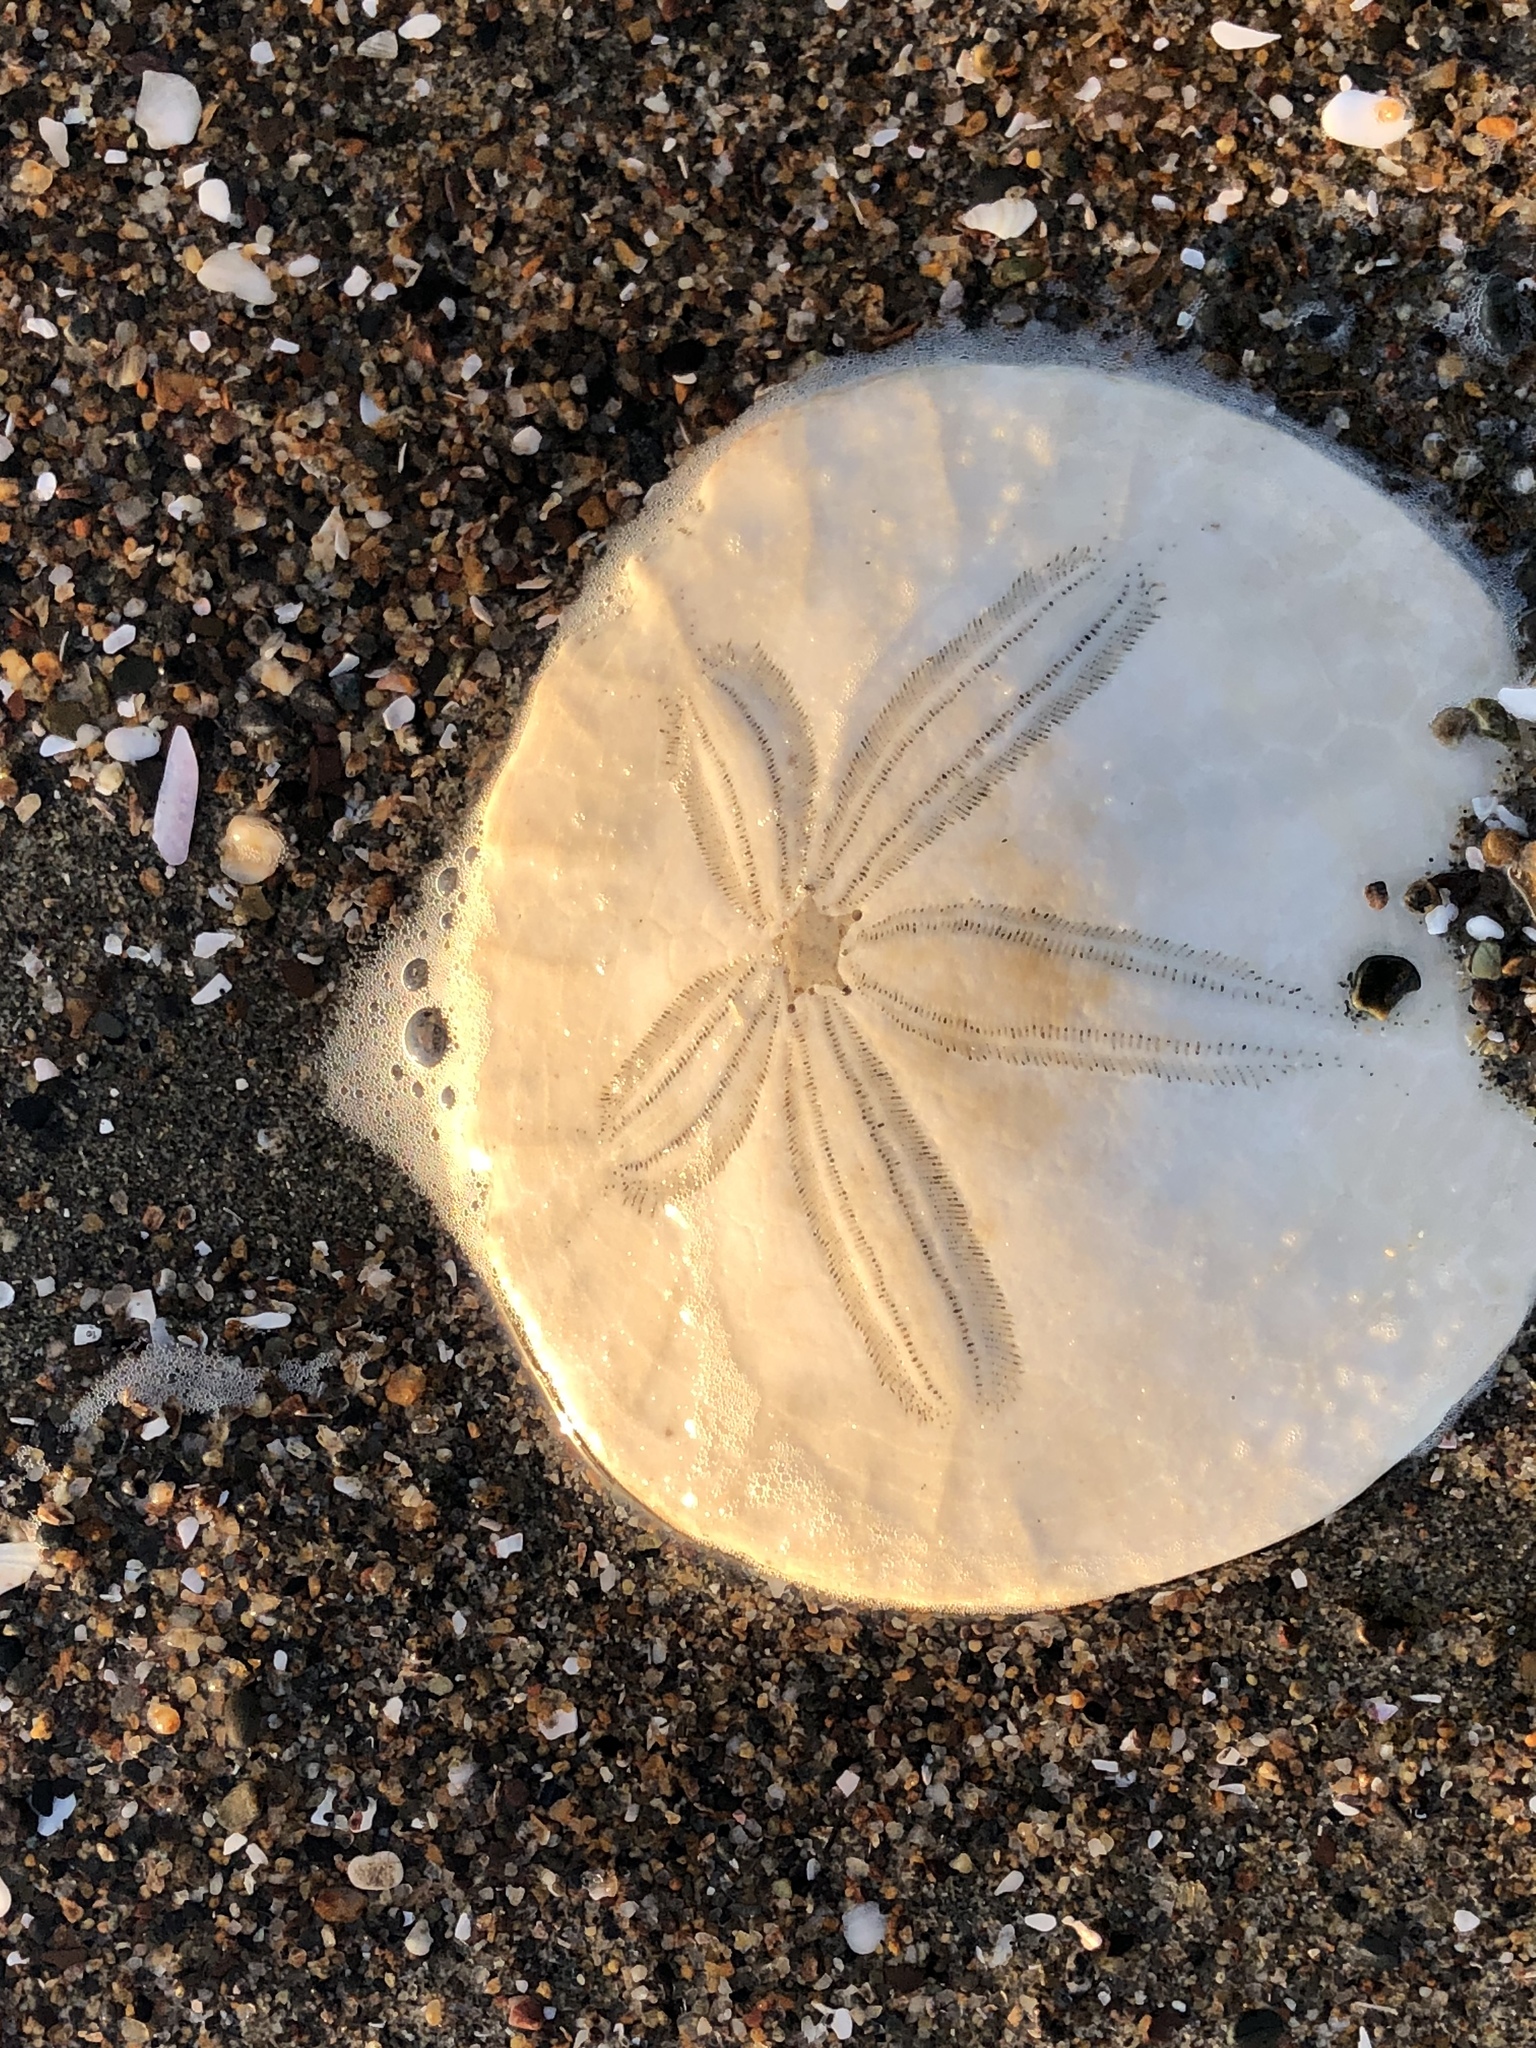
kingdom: Animalia
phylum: Echinodermata
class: Echinoidea
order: Echinolampadacea
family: Dendrasteridae
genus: Dendraster
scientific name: Dendraster excentricus
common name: Eccentric sand dollar sea urchin
